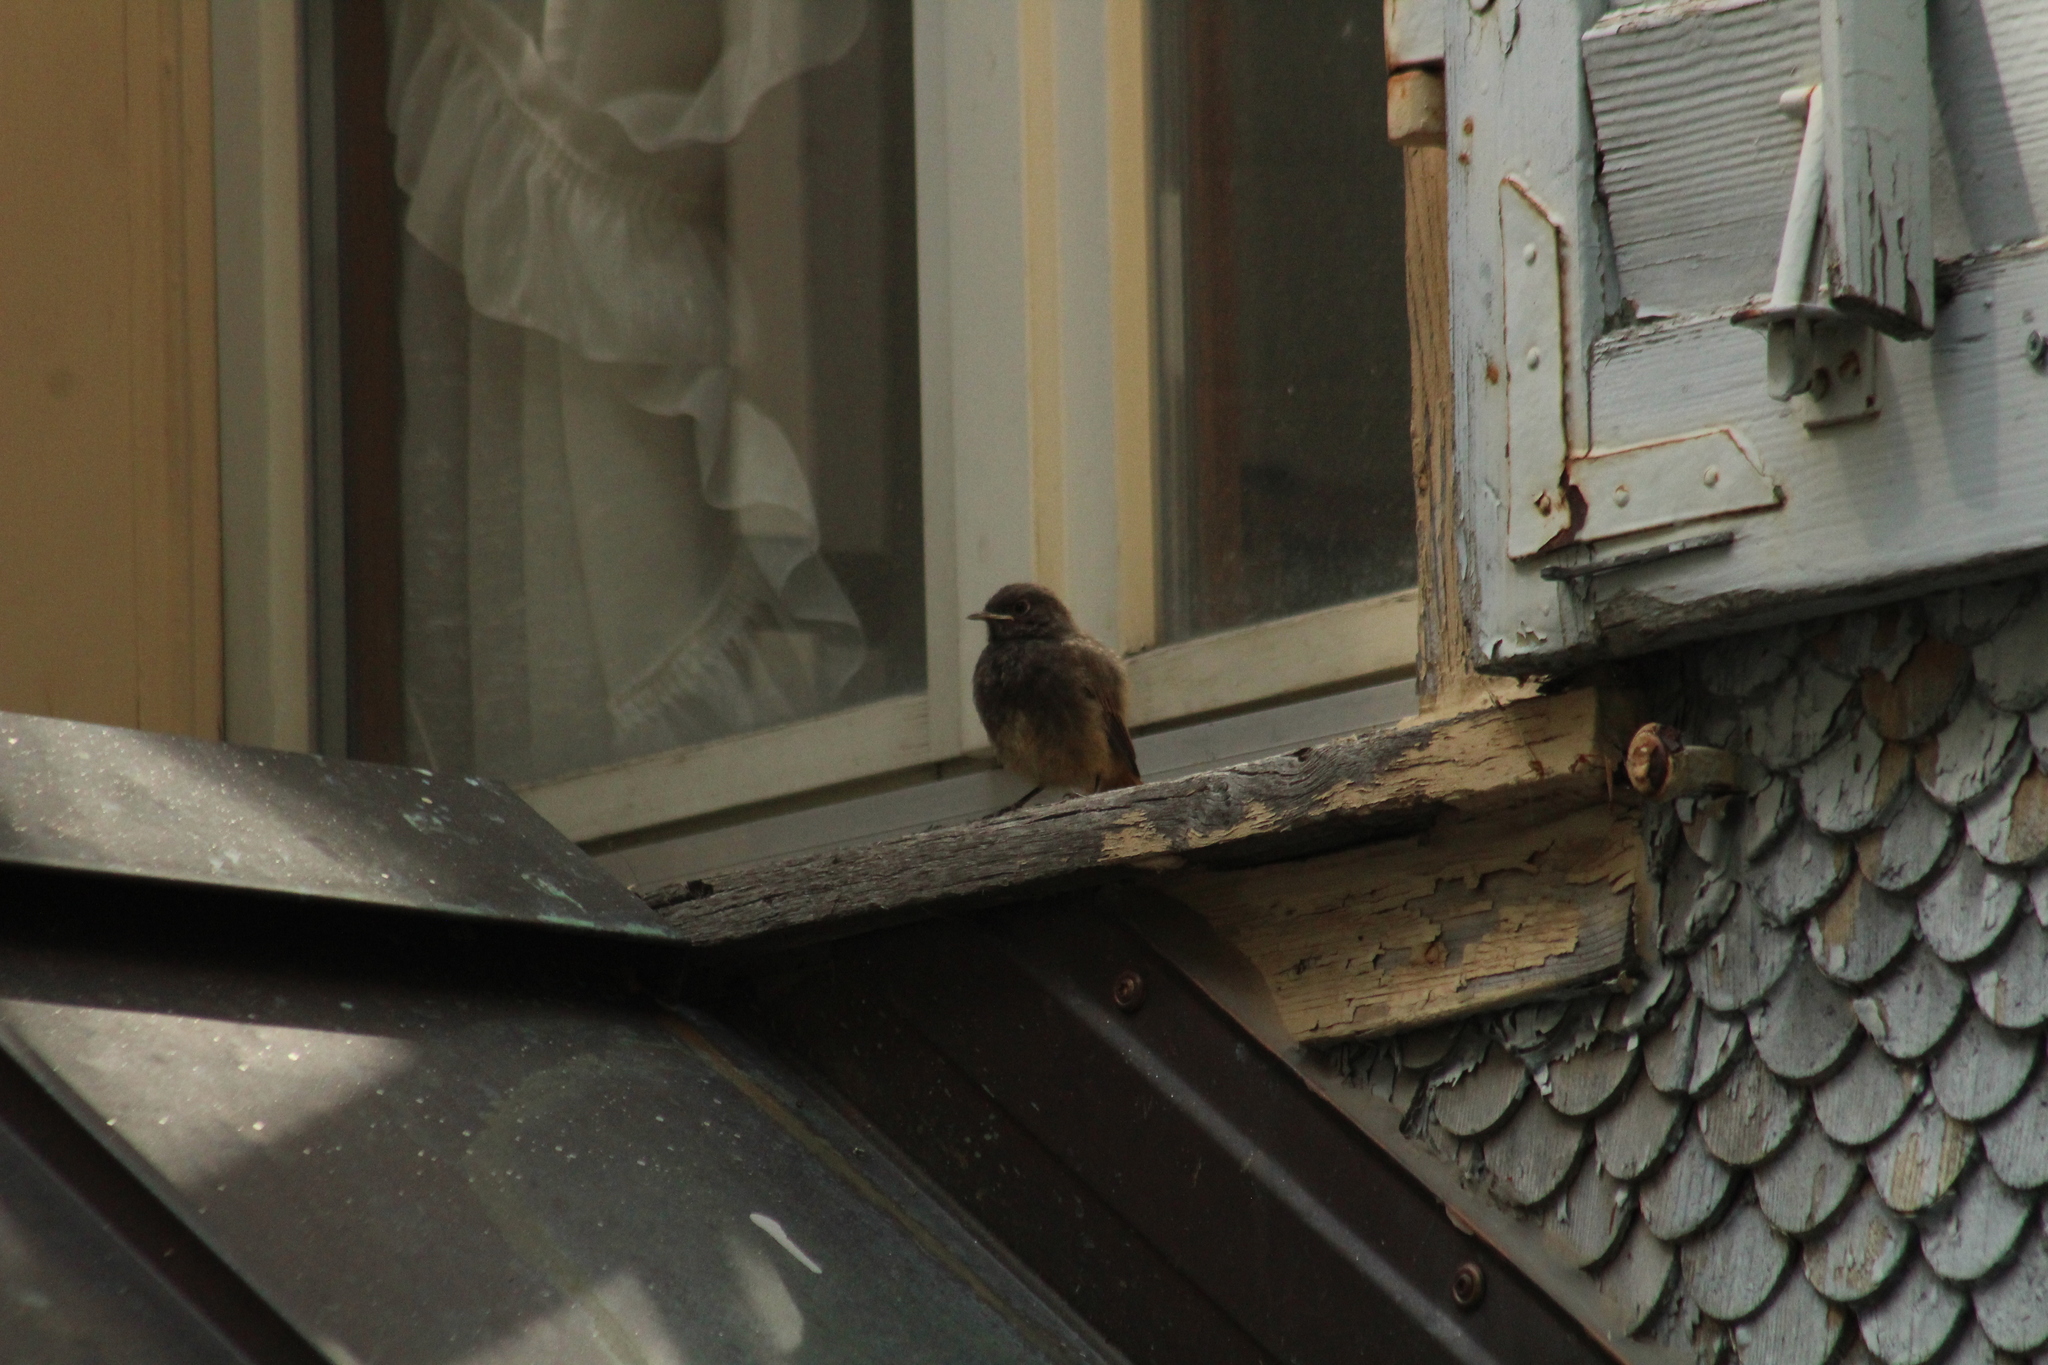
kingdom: Animalia
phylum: Chordata
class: Aves
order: Passeriformes
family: Muscicapidae
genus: Phoenicurus
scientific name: Phoenicurus ochruros
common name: Black redstart
